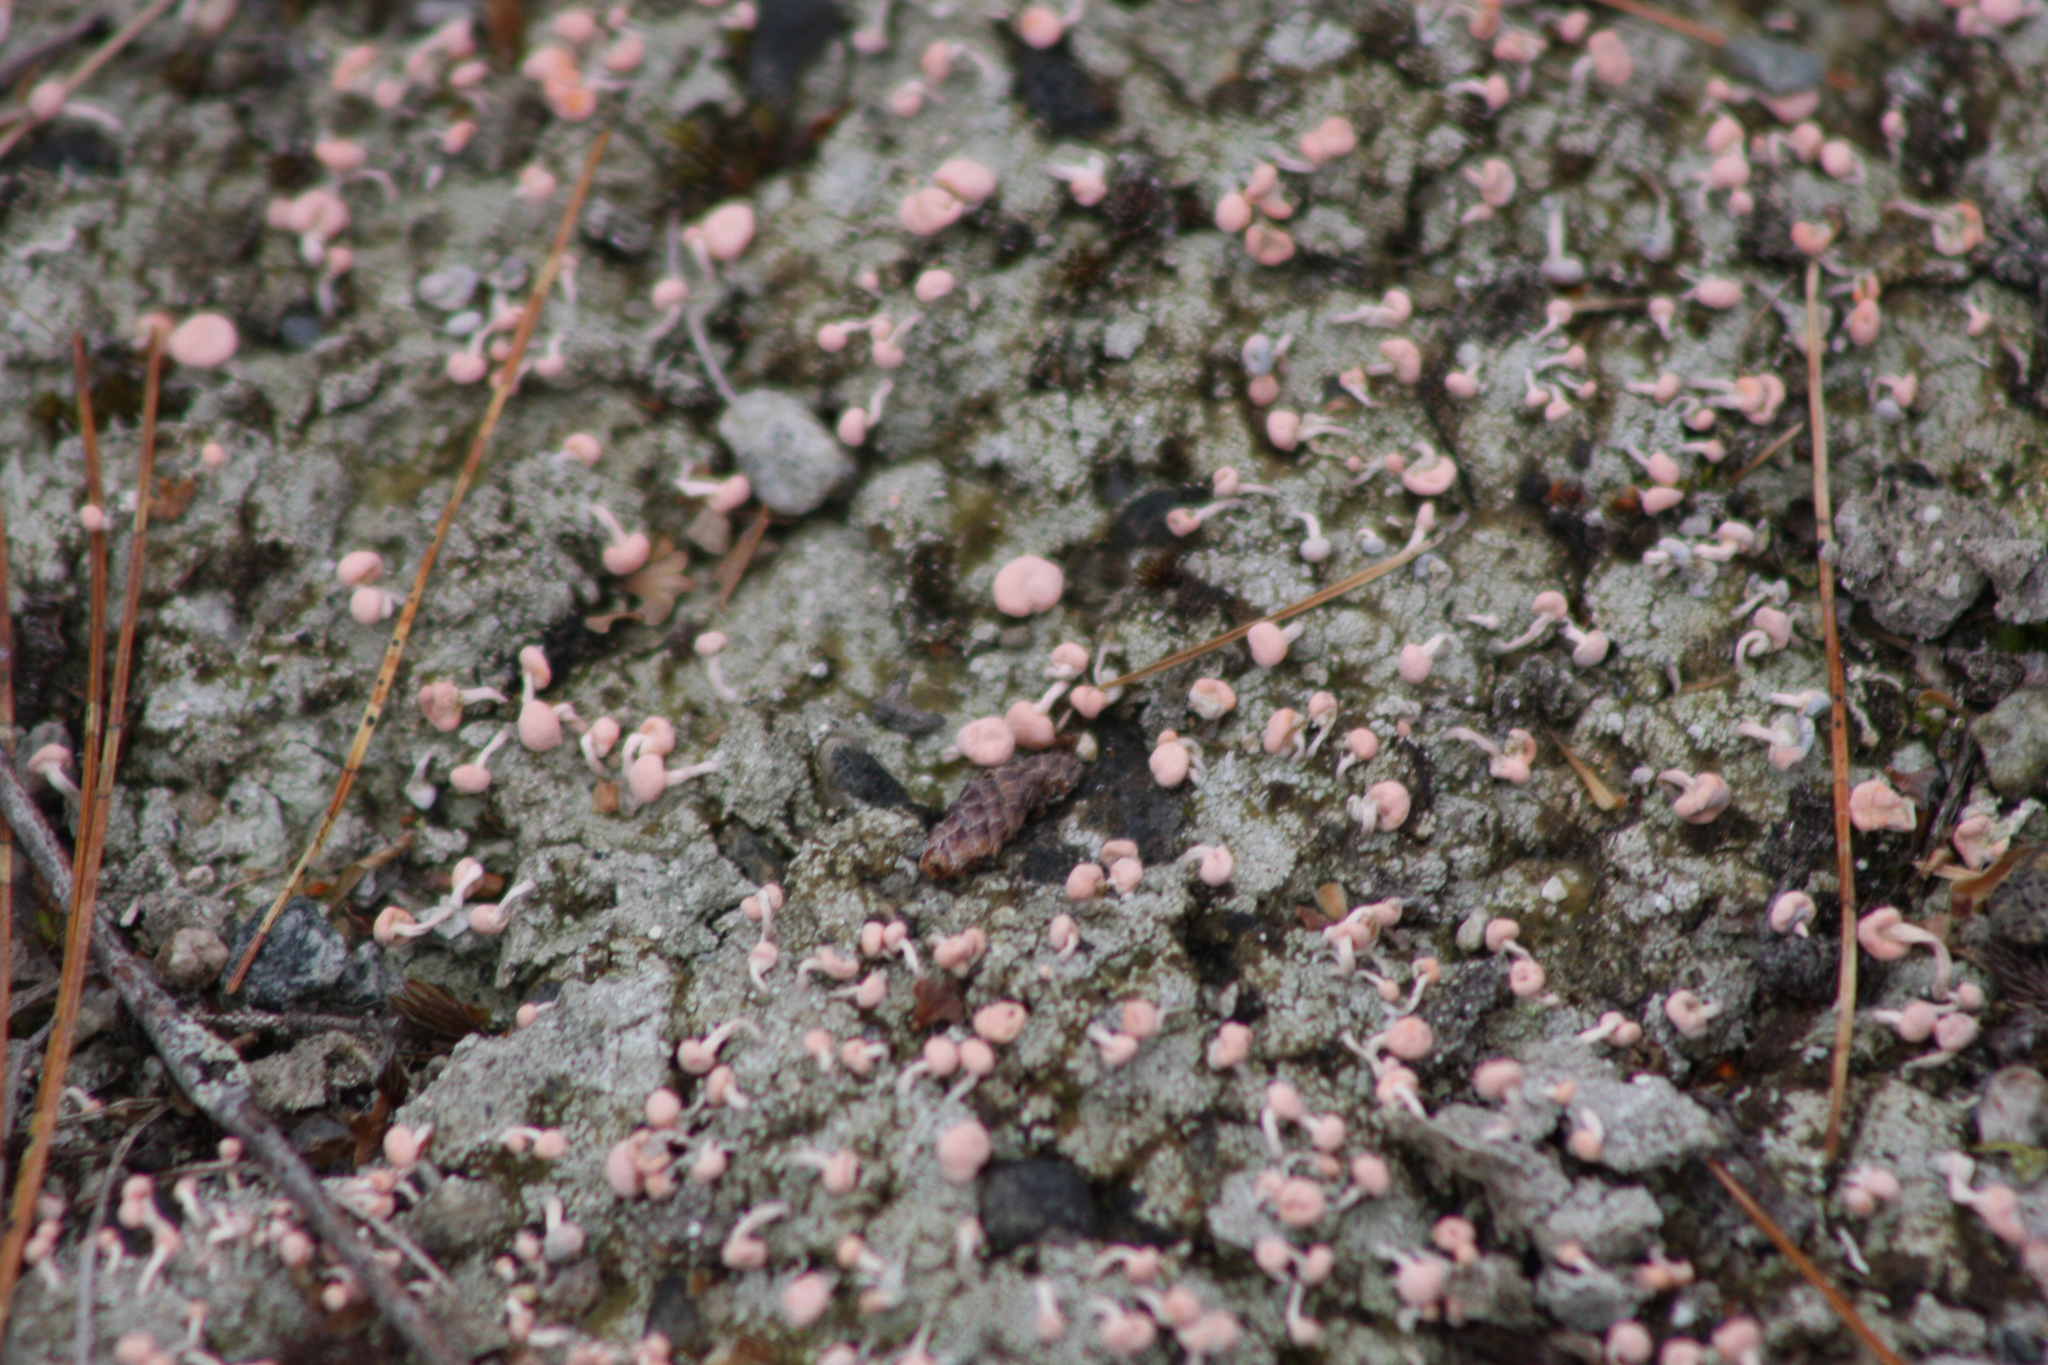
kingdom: Fungi
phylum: Ascomycota
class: Lecanoromycetes
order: Pertusariales
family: Icmadophilaceae
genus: Dibaeis
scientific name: Dibaeis baeomyces
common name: Pink earth lichen
